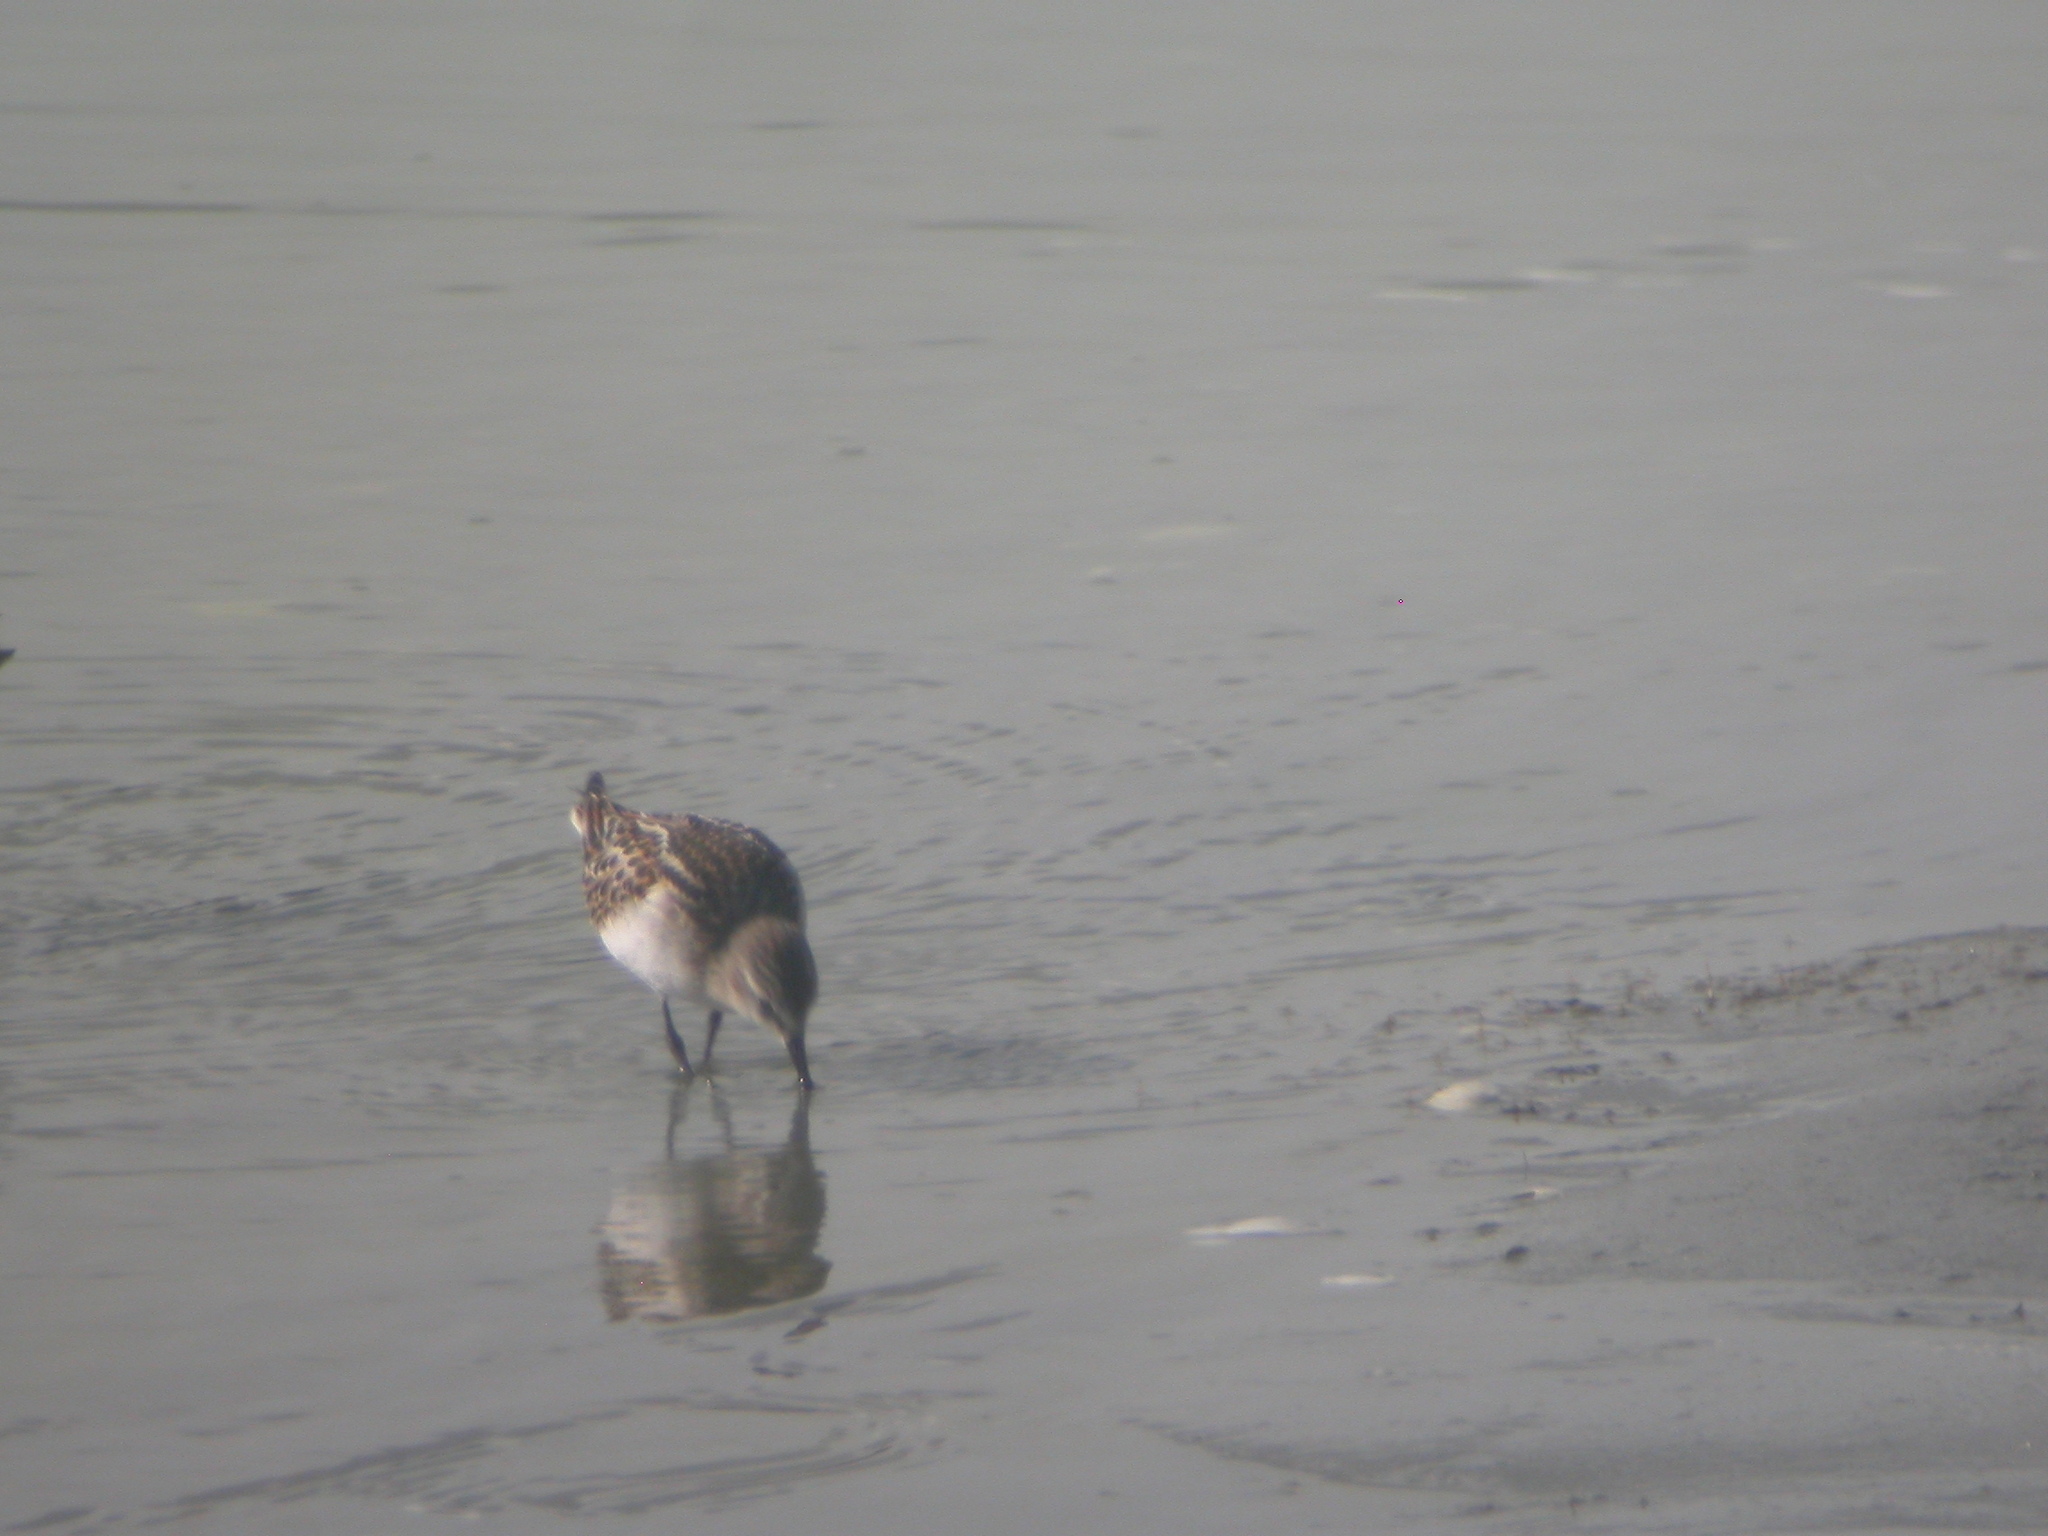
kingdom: Animalia
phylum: Chordata
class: Aves
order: Charadriiformes
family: Scolopacidae
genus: Calidris
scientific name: Calidris minuta
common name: Little stint
